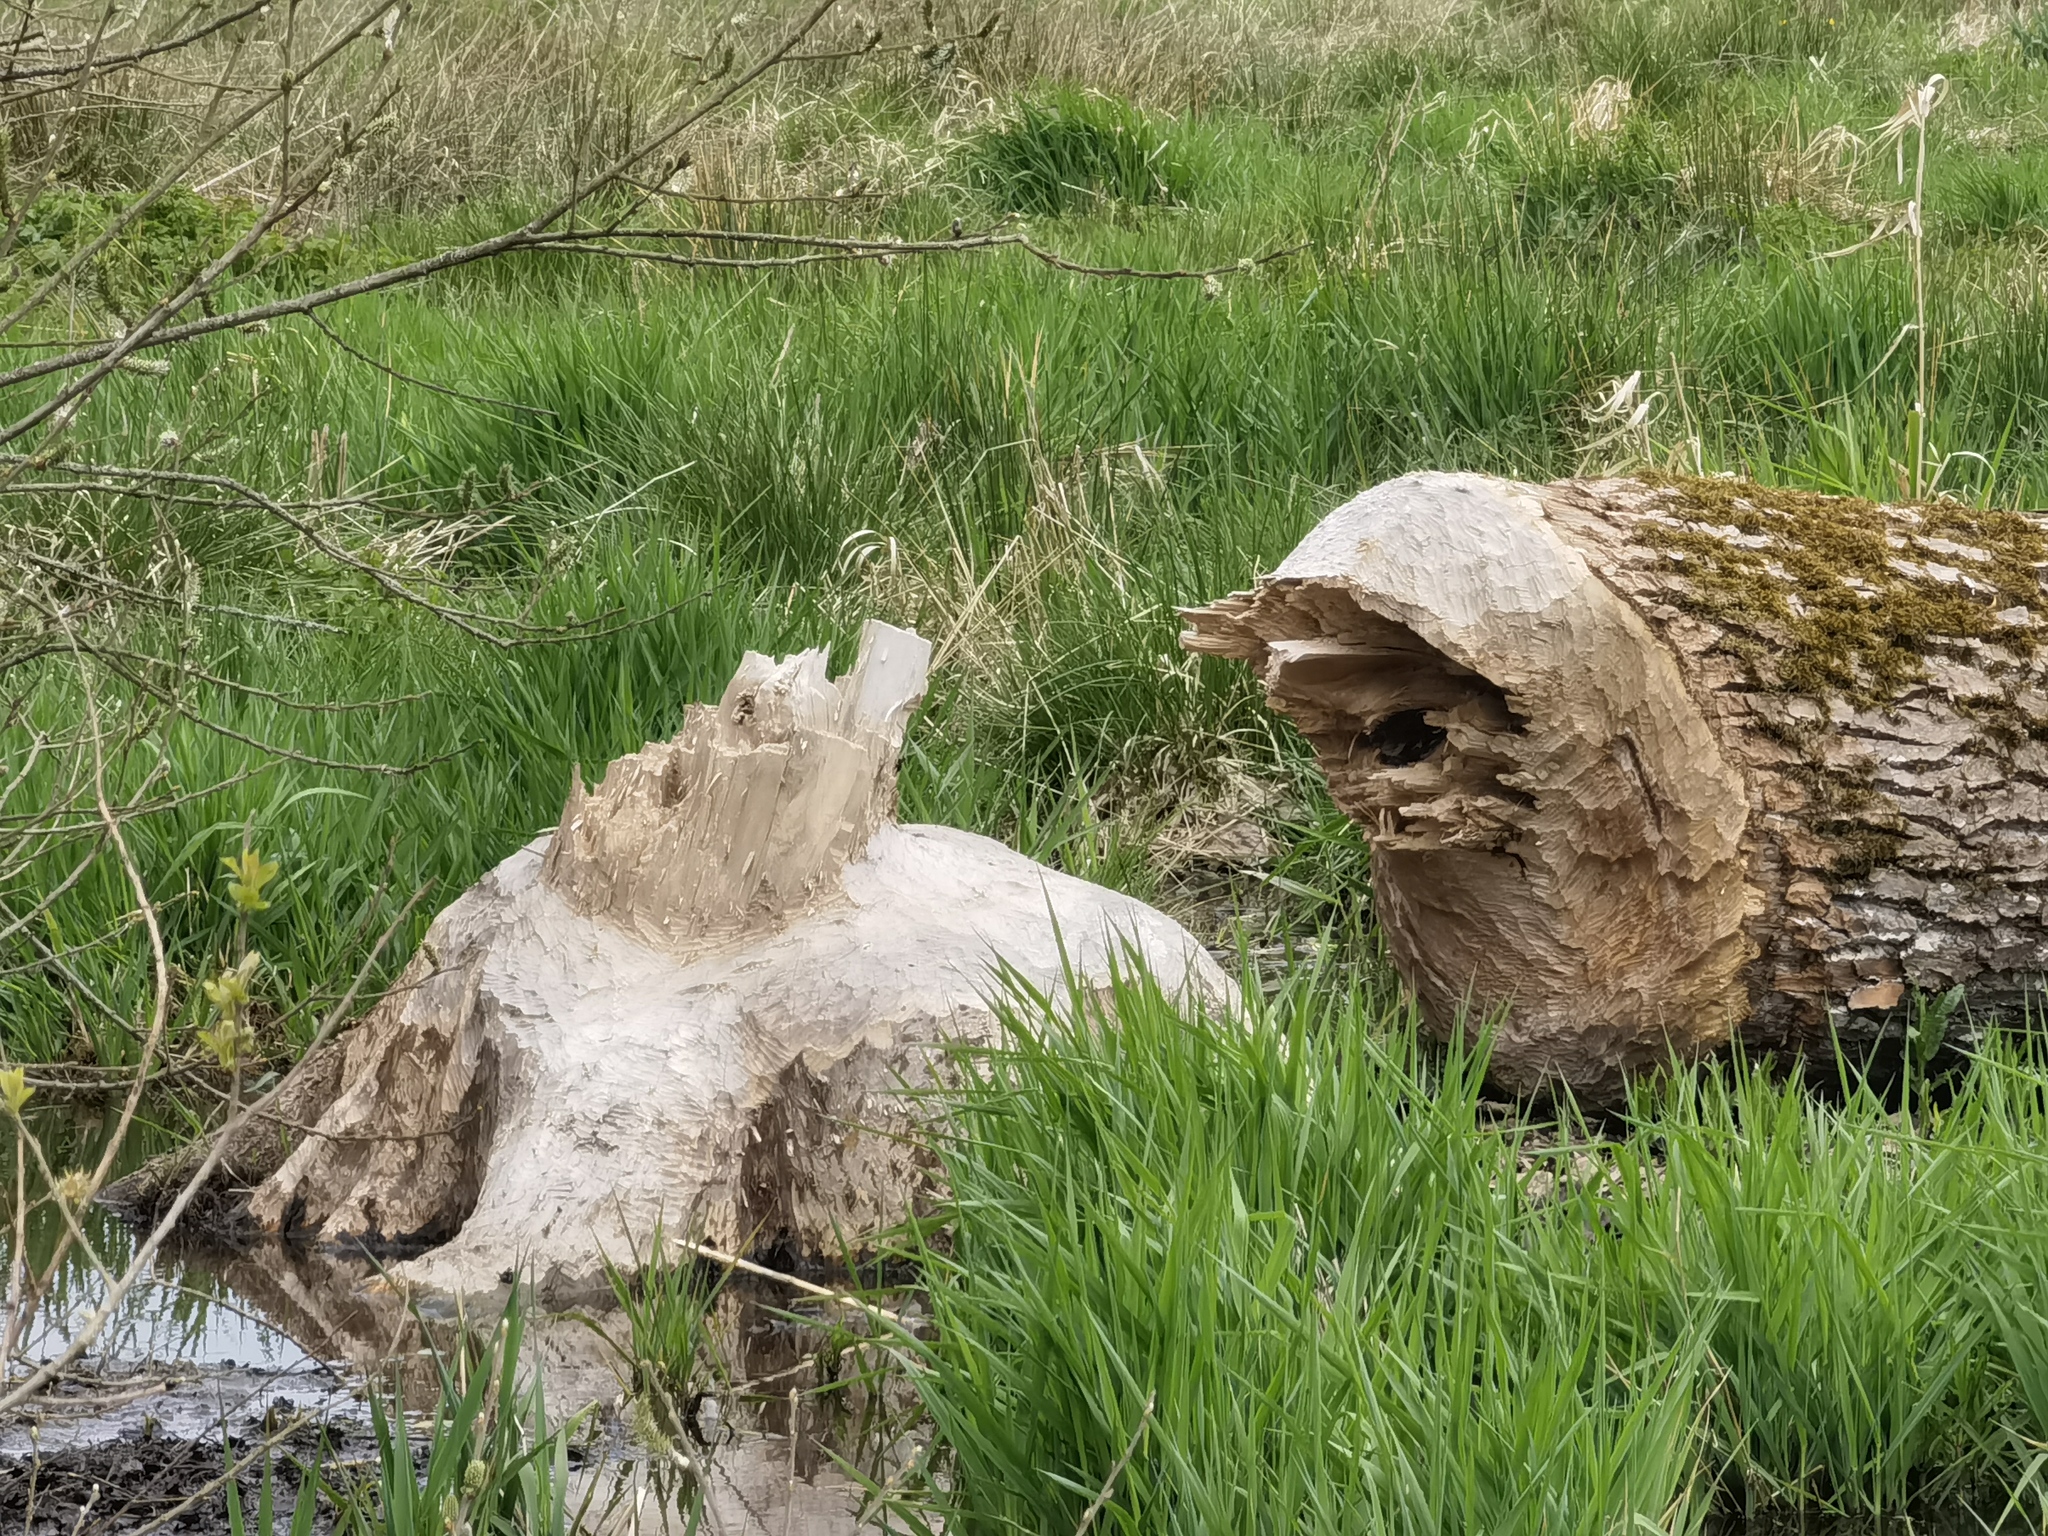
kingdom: Animalia
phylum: Chordata
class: Mammalia
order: Rodentia
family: Castoridae
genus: Castor
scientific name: Castor fiber
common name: Eurasian beaver
